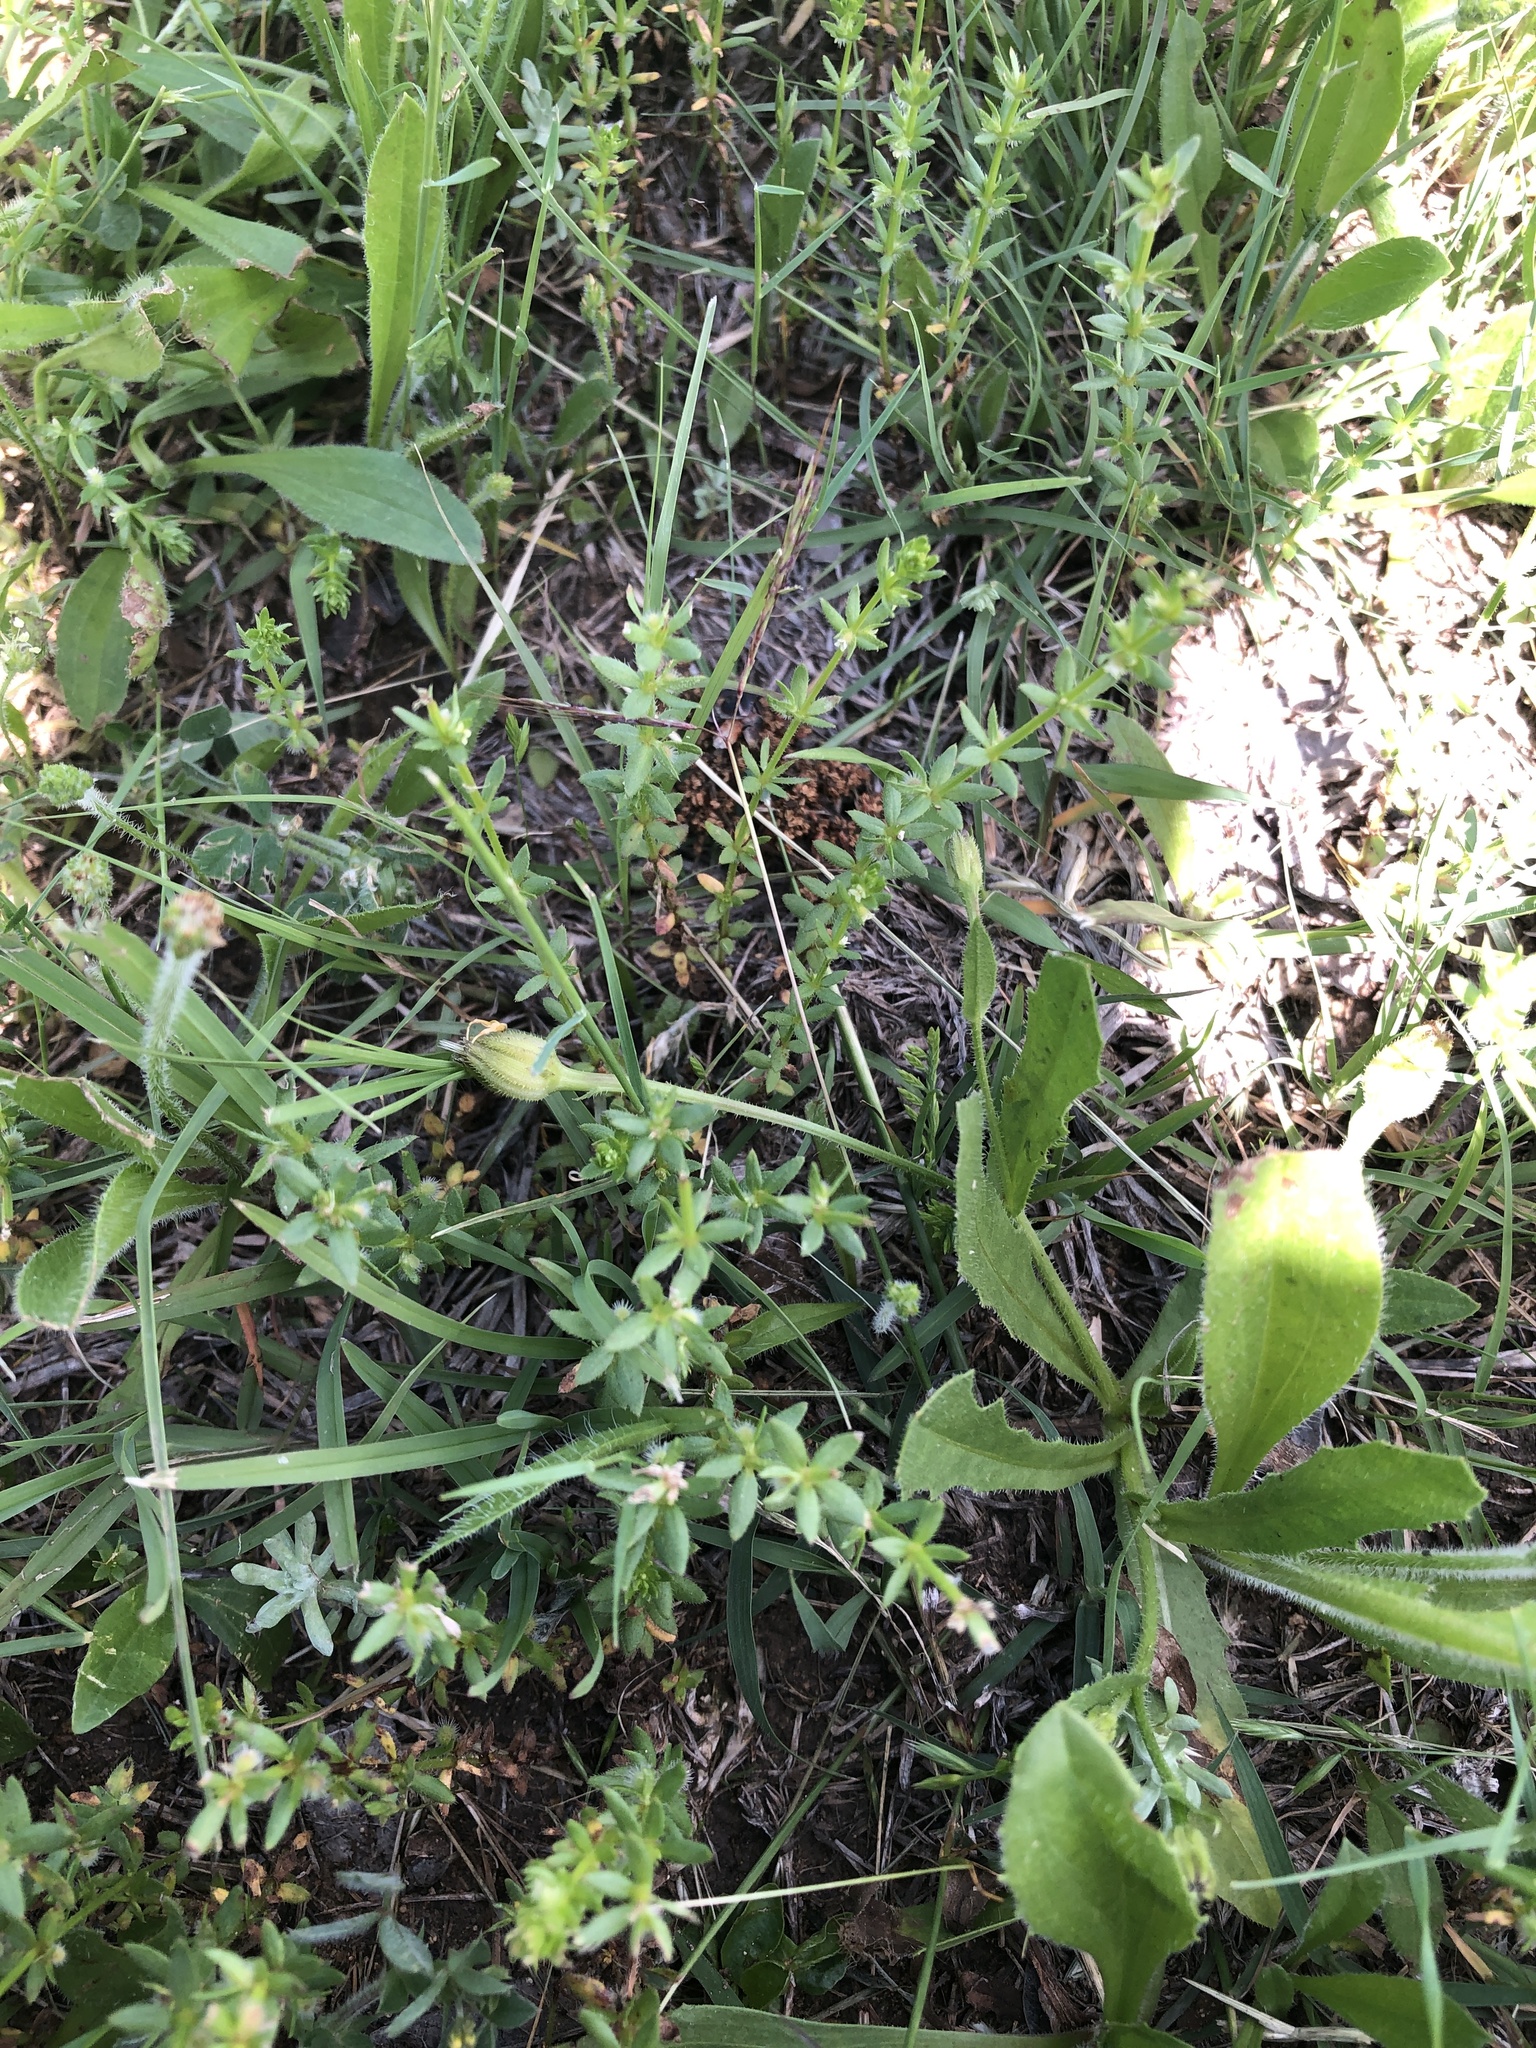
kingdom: Plantae
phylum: Tracheophyta
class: Magnoliopsida
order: Gentianales
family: Rubiaceae
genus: Galium
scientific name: Galium virgatum
